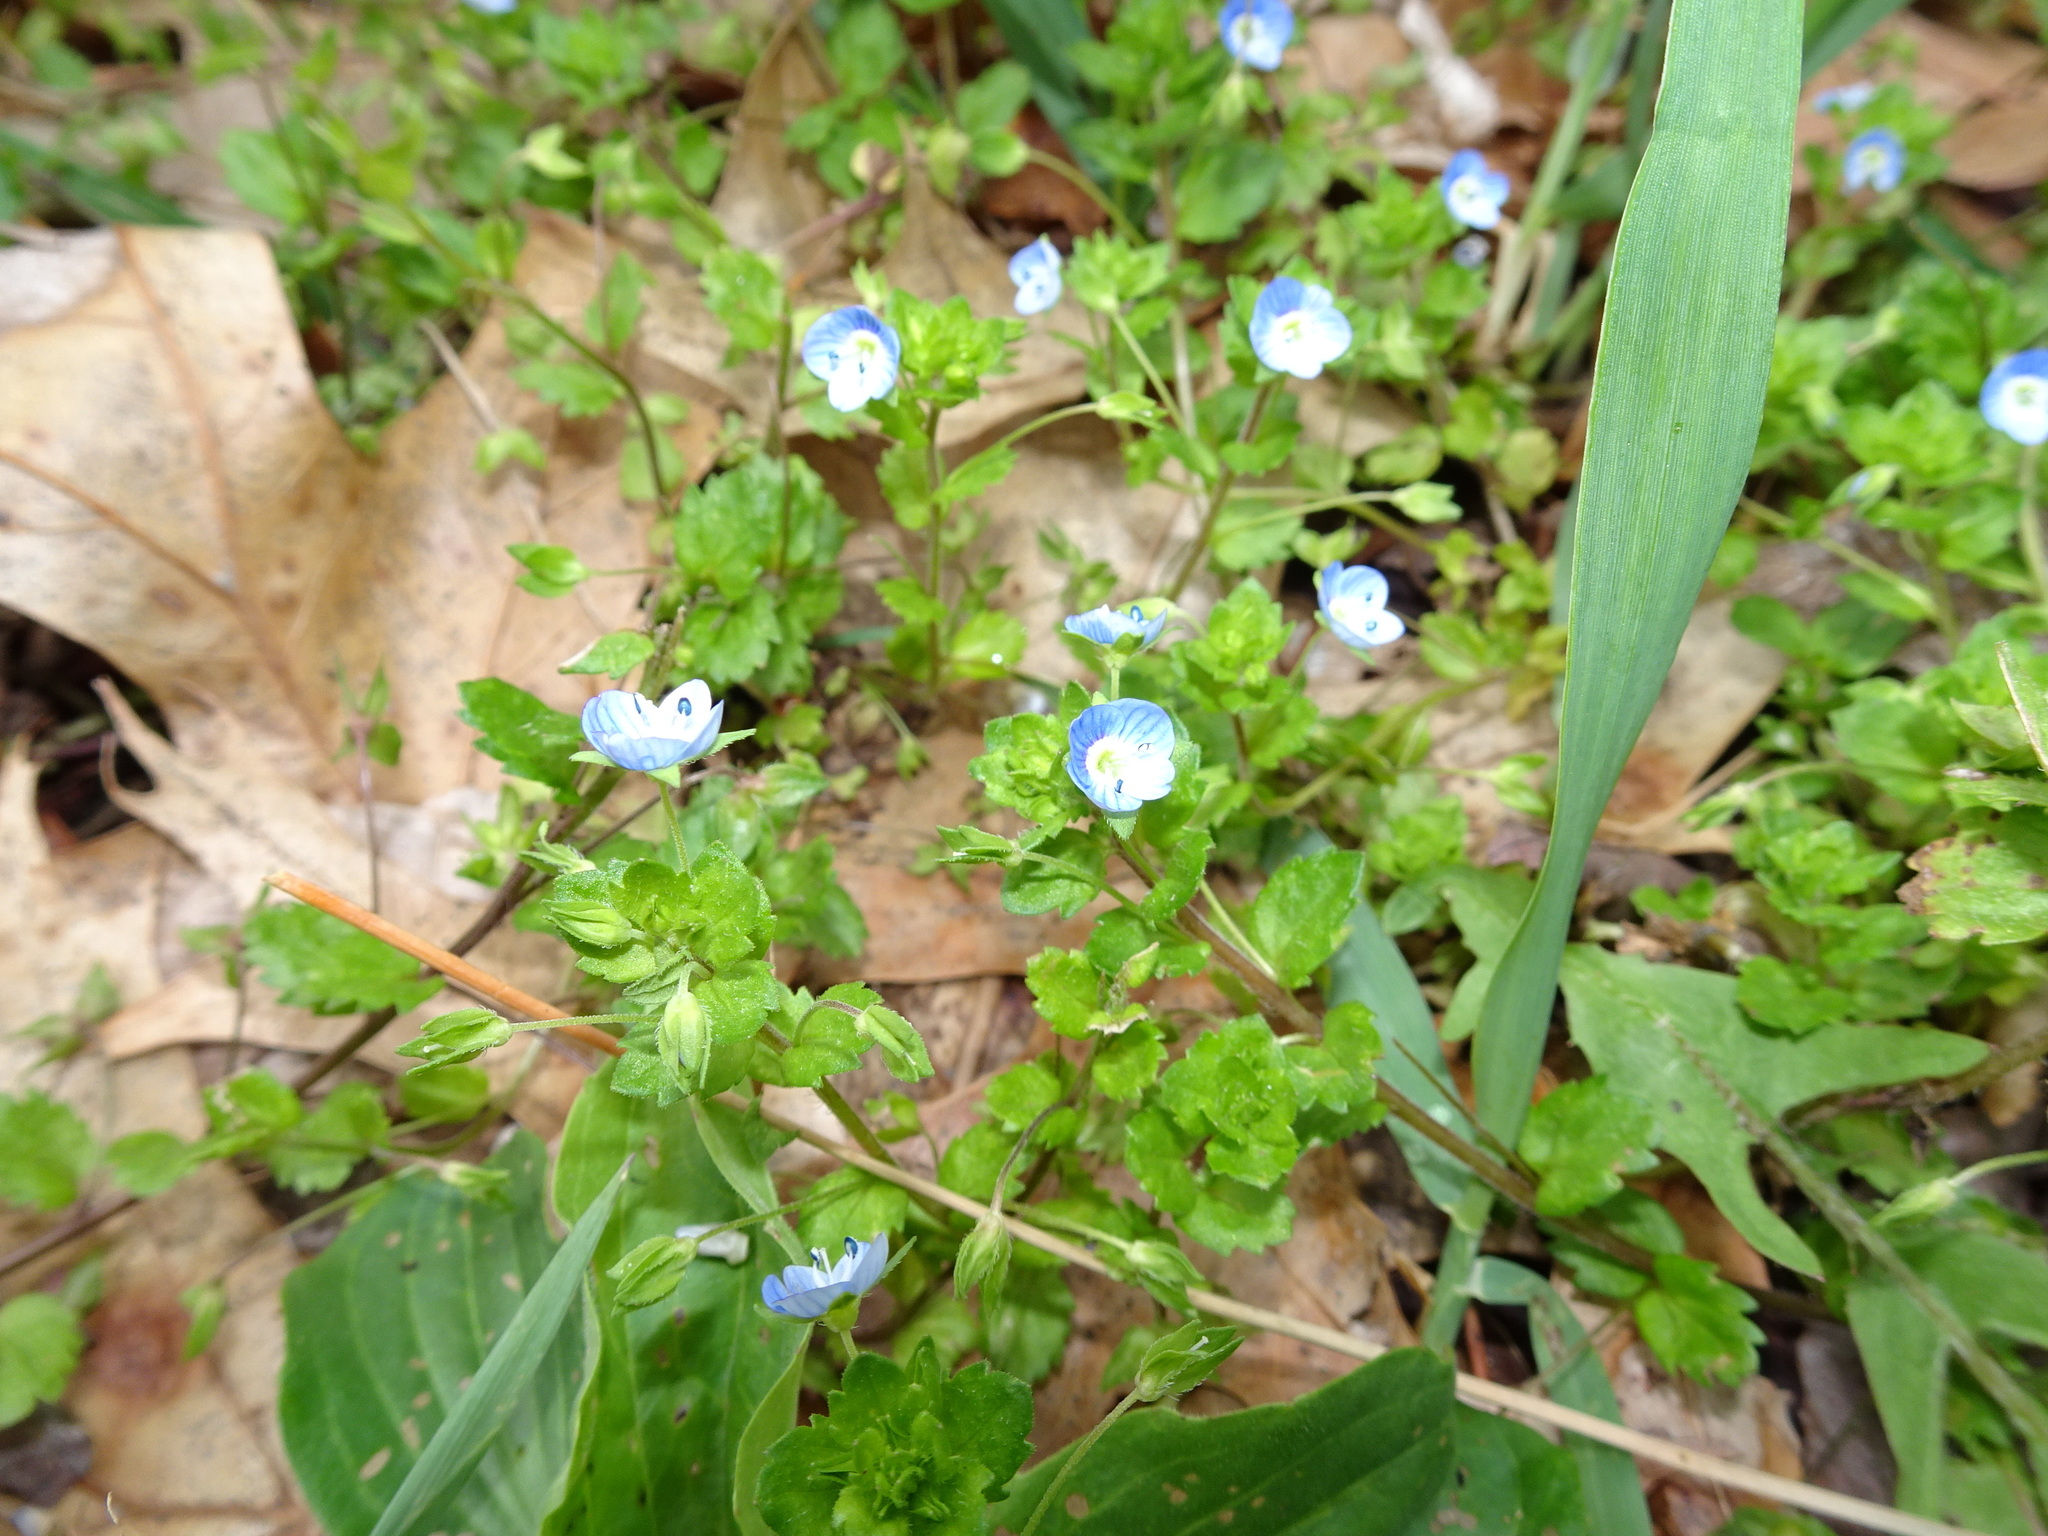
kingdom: Plantae
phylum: Tracheophyta
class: Magnoliopsida
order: Lamiales
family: Plantaginaceae
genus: Veronica
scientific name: Veronica persica
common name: Common field-speedwell
